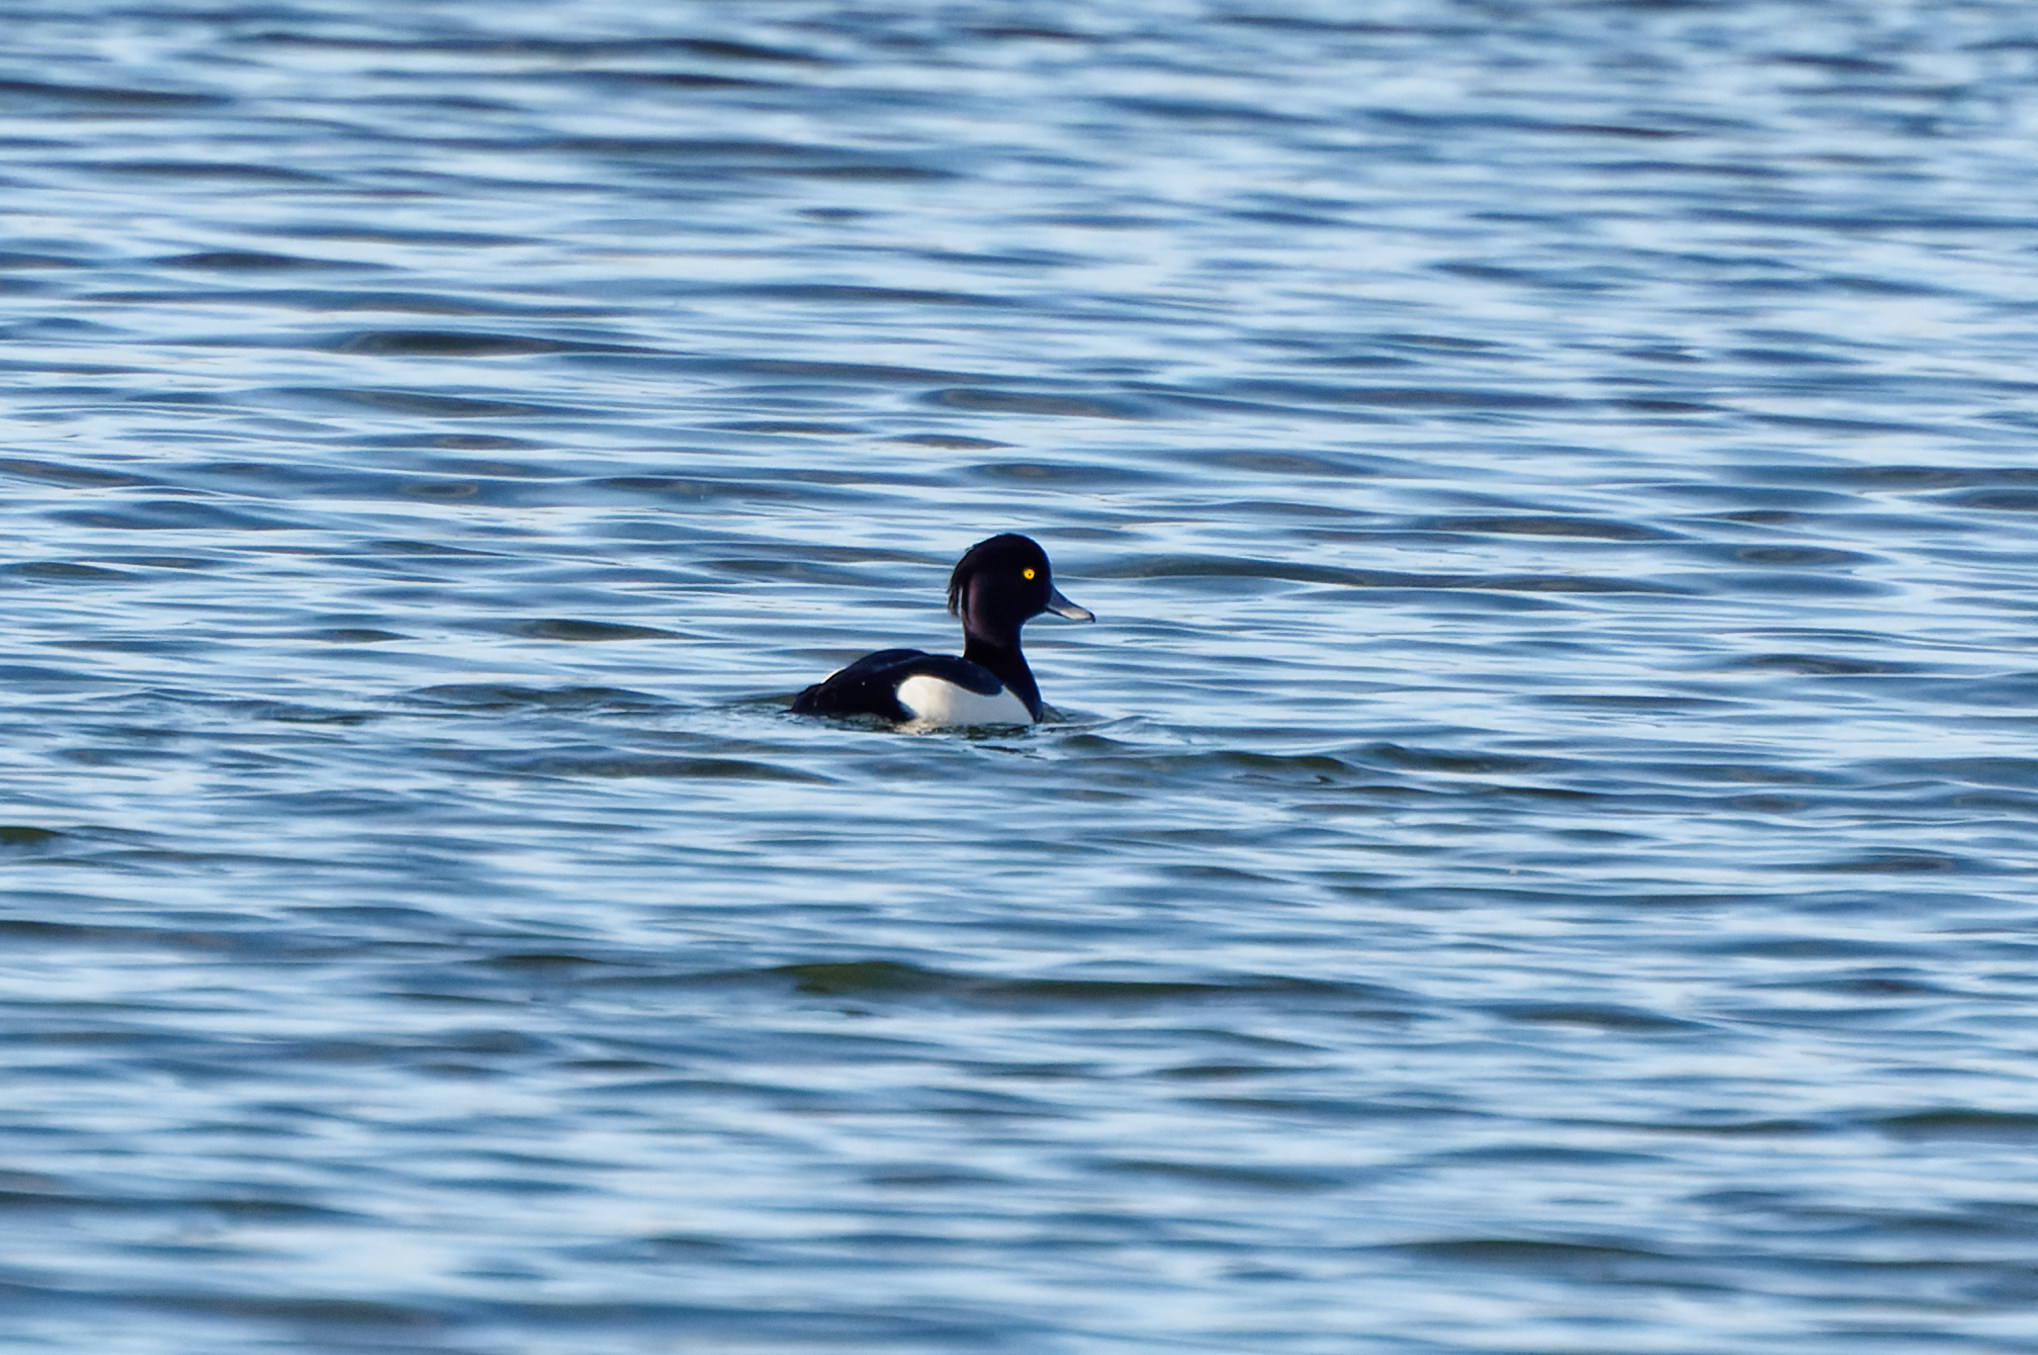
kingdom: Animalia
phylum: Chordata
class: Aves
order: Anseriformes
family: Anatidae
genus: Aythya
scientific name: Aythya fuligula
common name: Tufted duck
